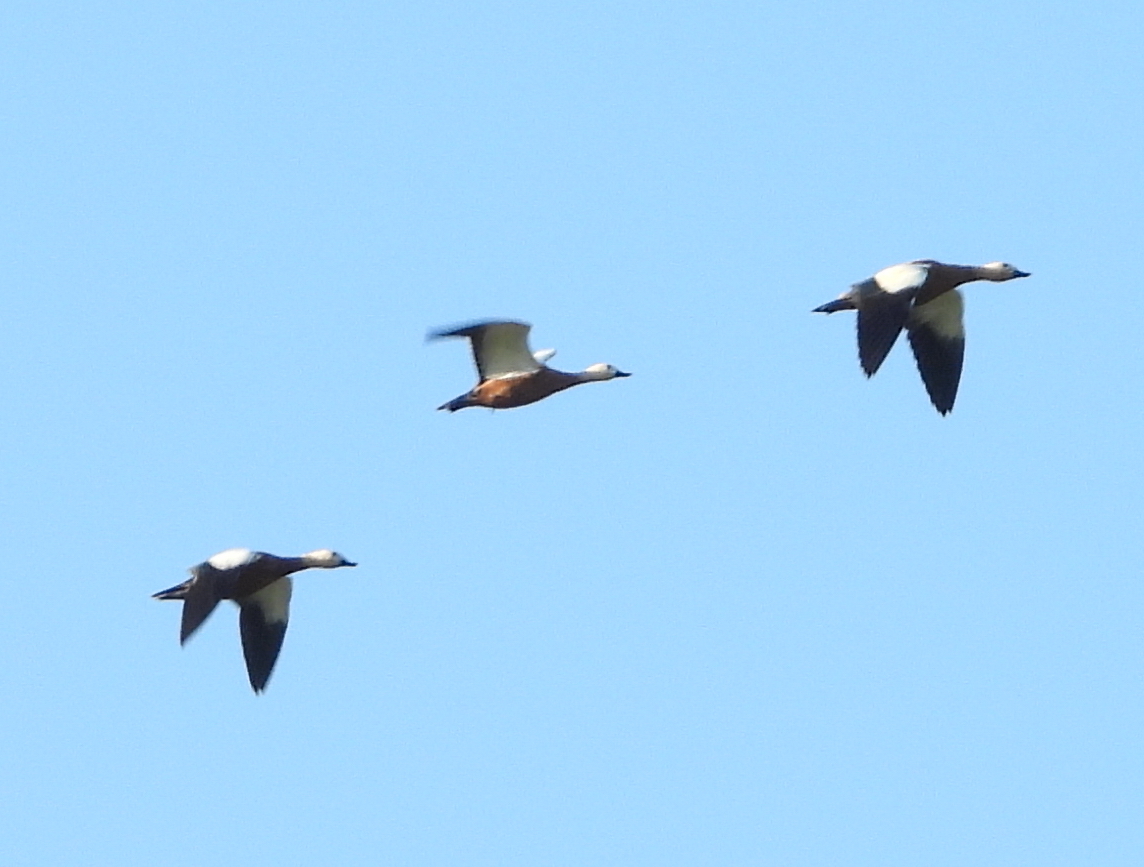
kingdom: Animalia
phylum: Chordata
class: Aves
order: Anseriformes
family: Anatidae
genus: Tadorna
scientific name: Tadorna ferruginea
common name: Ruddy shelduck
